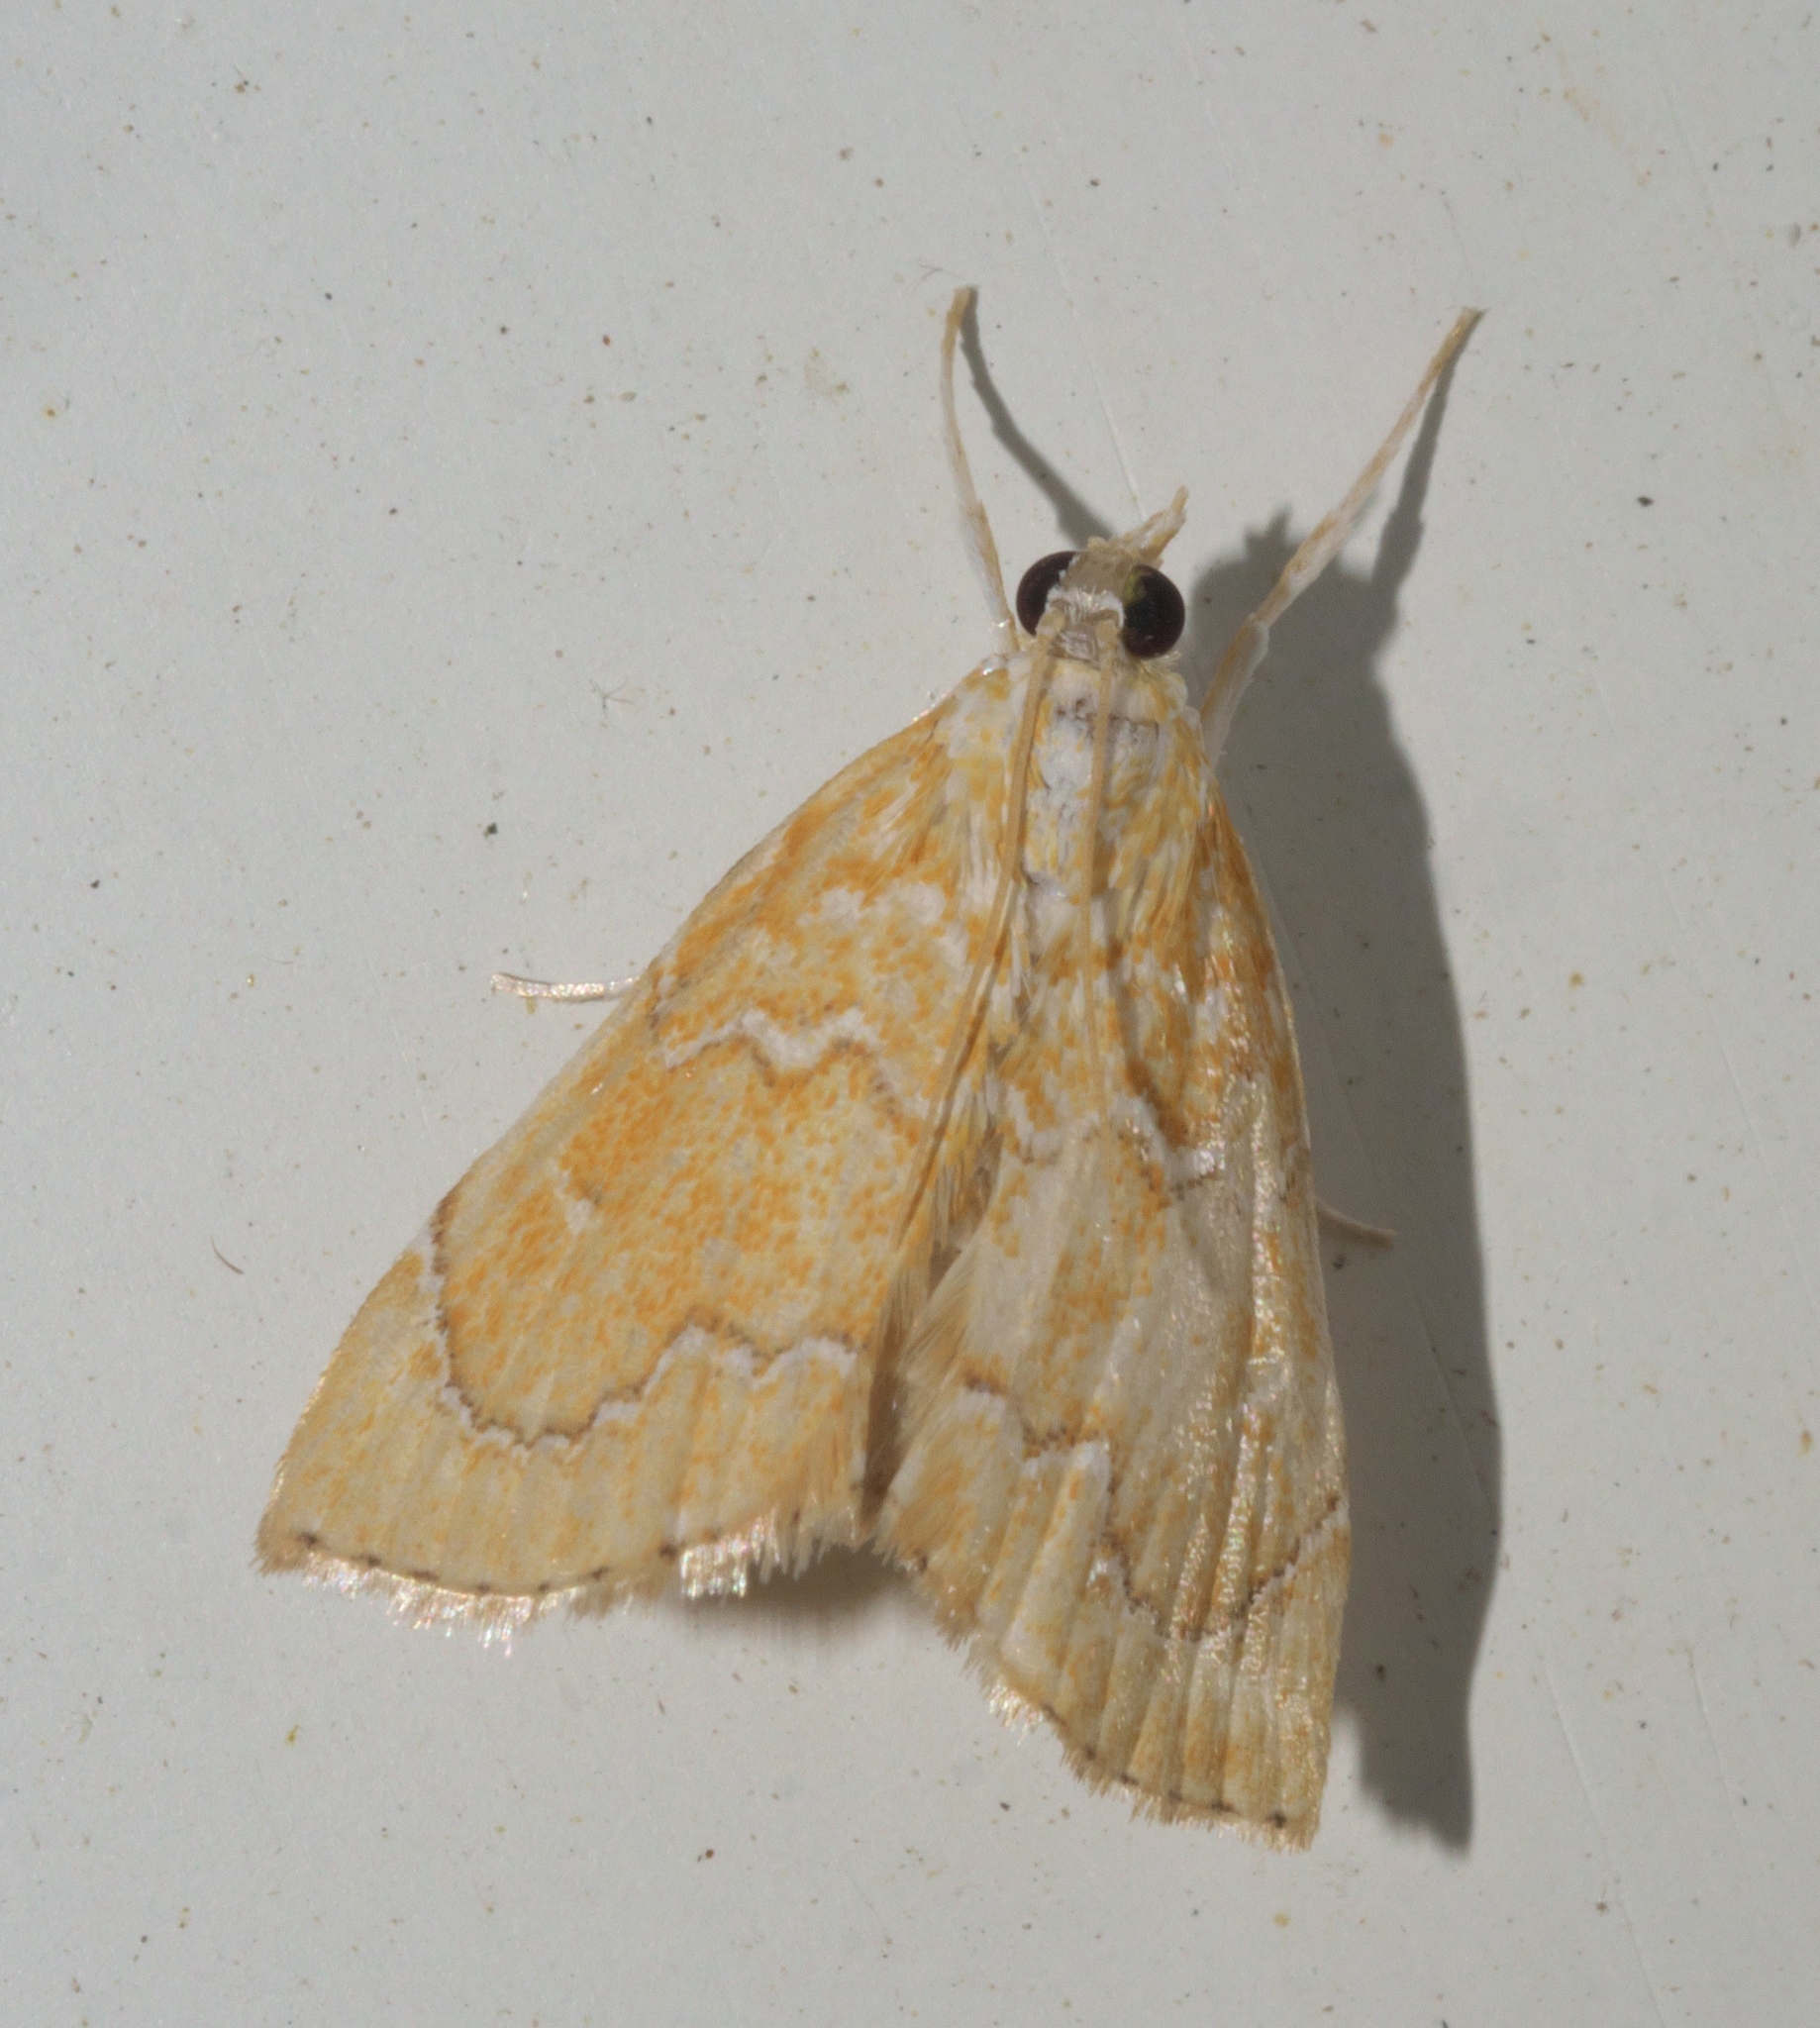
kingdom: Animalia
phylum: Arthropoda
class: Insecta
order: Lepidoptera
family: Crambidae
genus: Glaphyria
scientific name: Glaphyria sesquistrialis
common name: White-roped glaphyria
